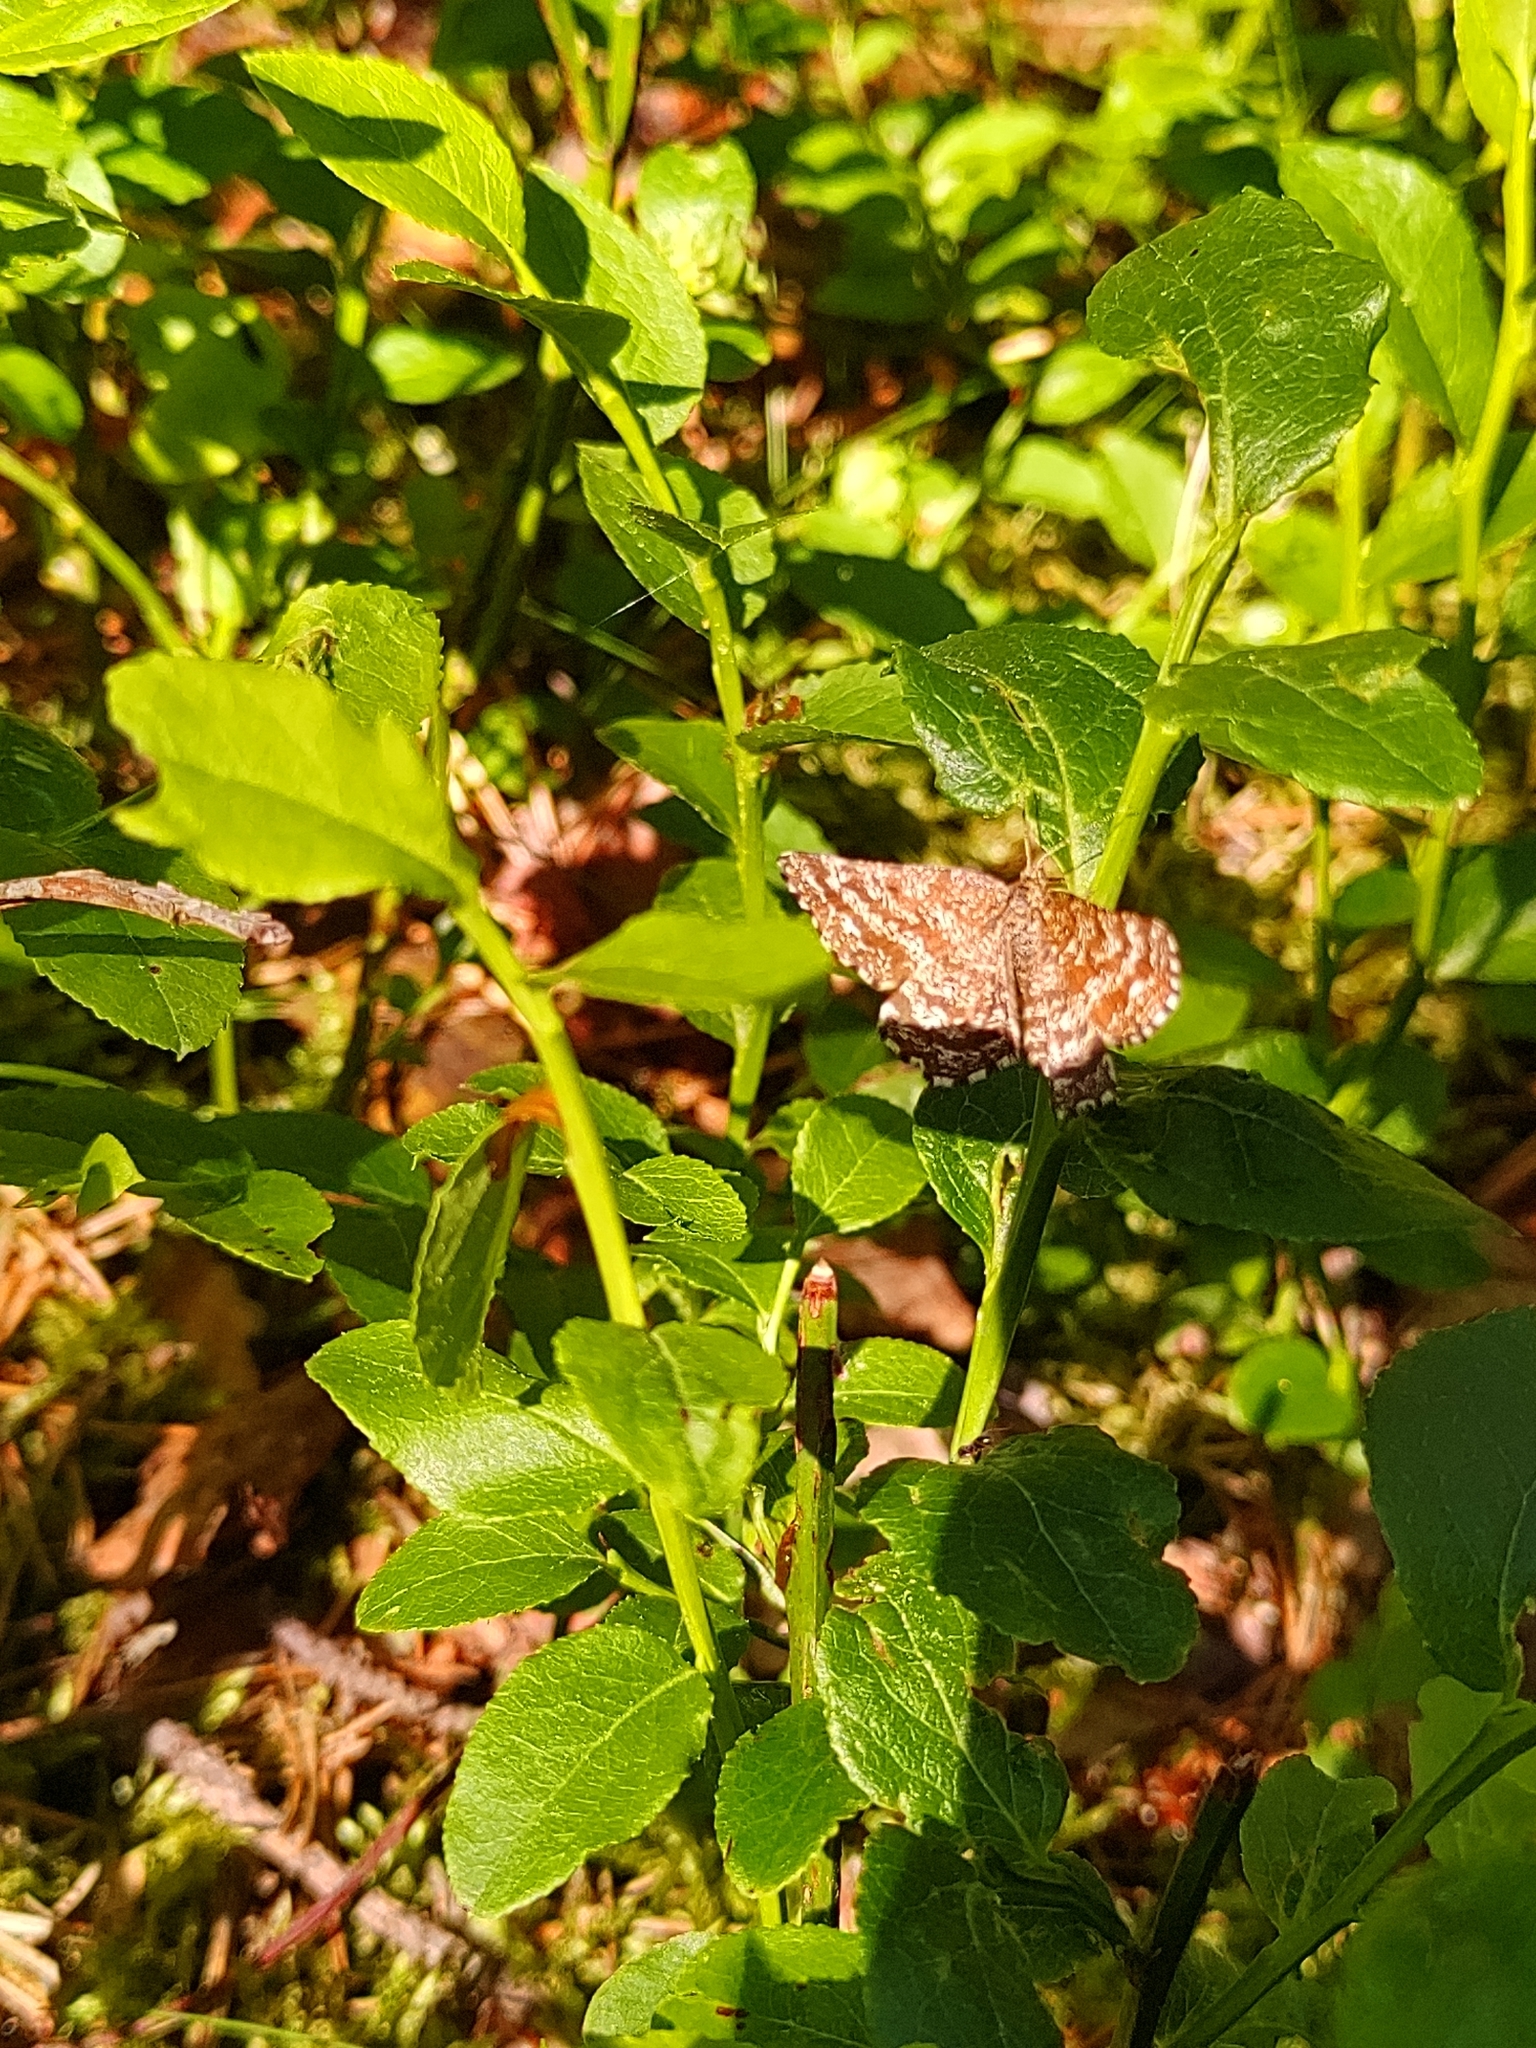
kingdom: Animalia
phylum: Arthropoda
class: Insecta
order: Lepidoptera
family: Geometridae
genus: Ematurga
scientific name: Ematurga atomaria
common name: Common heath
